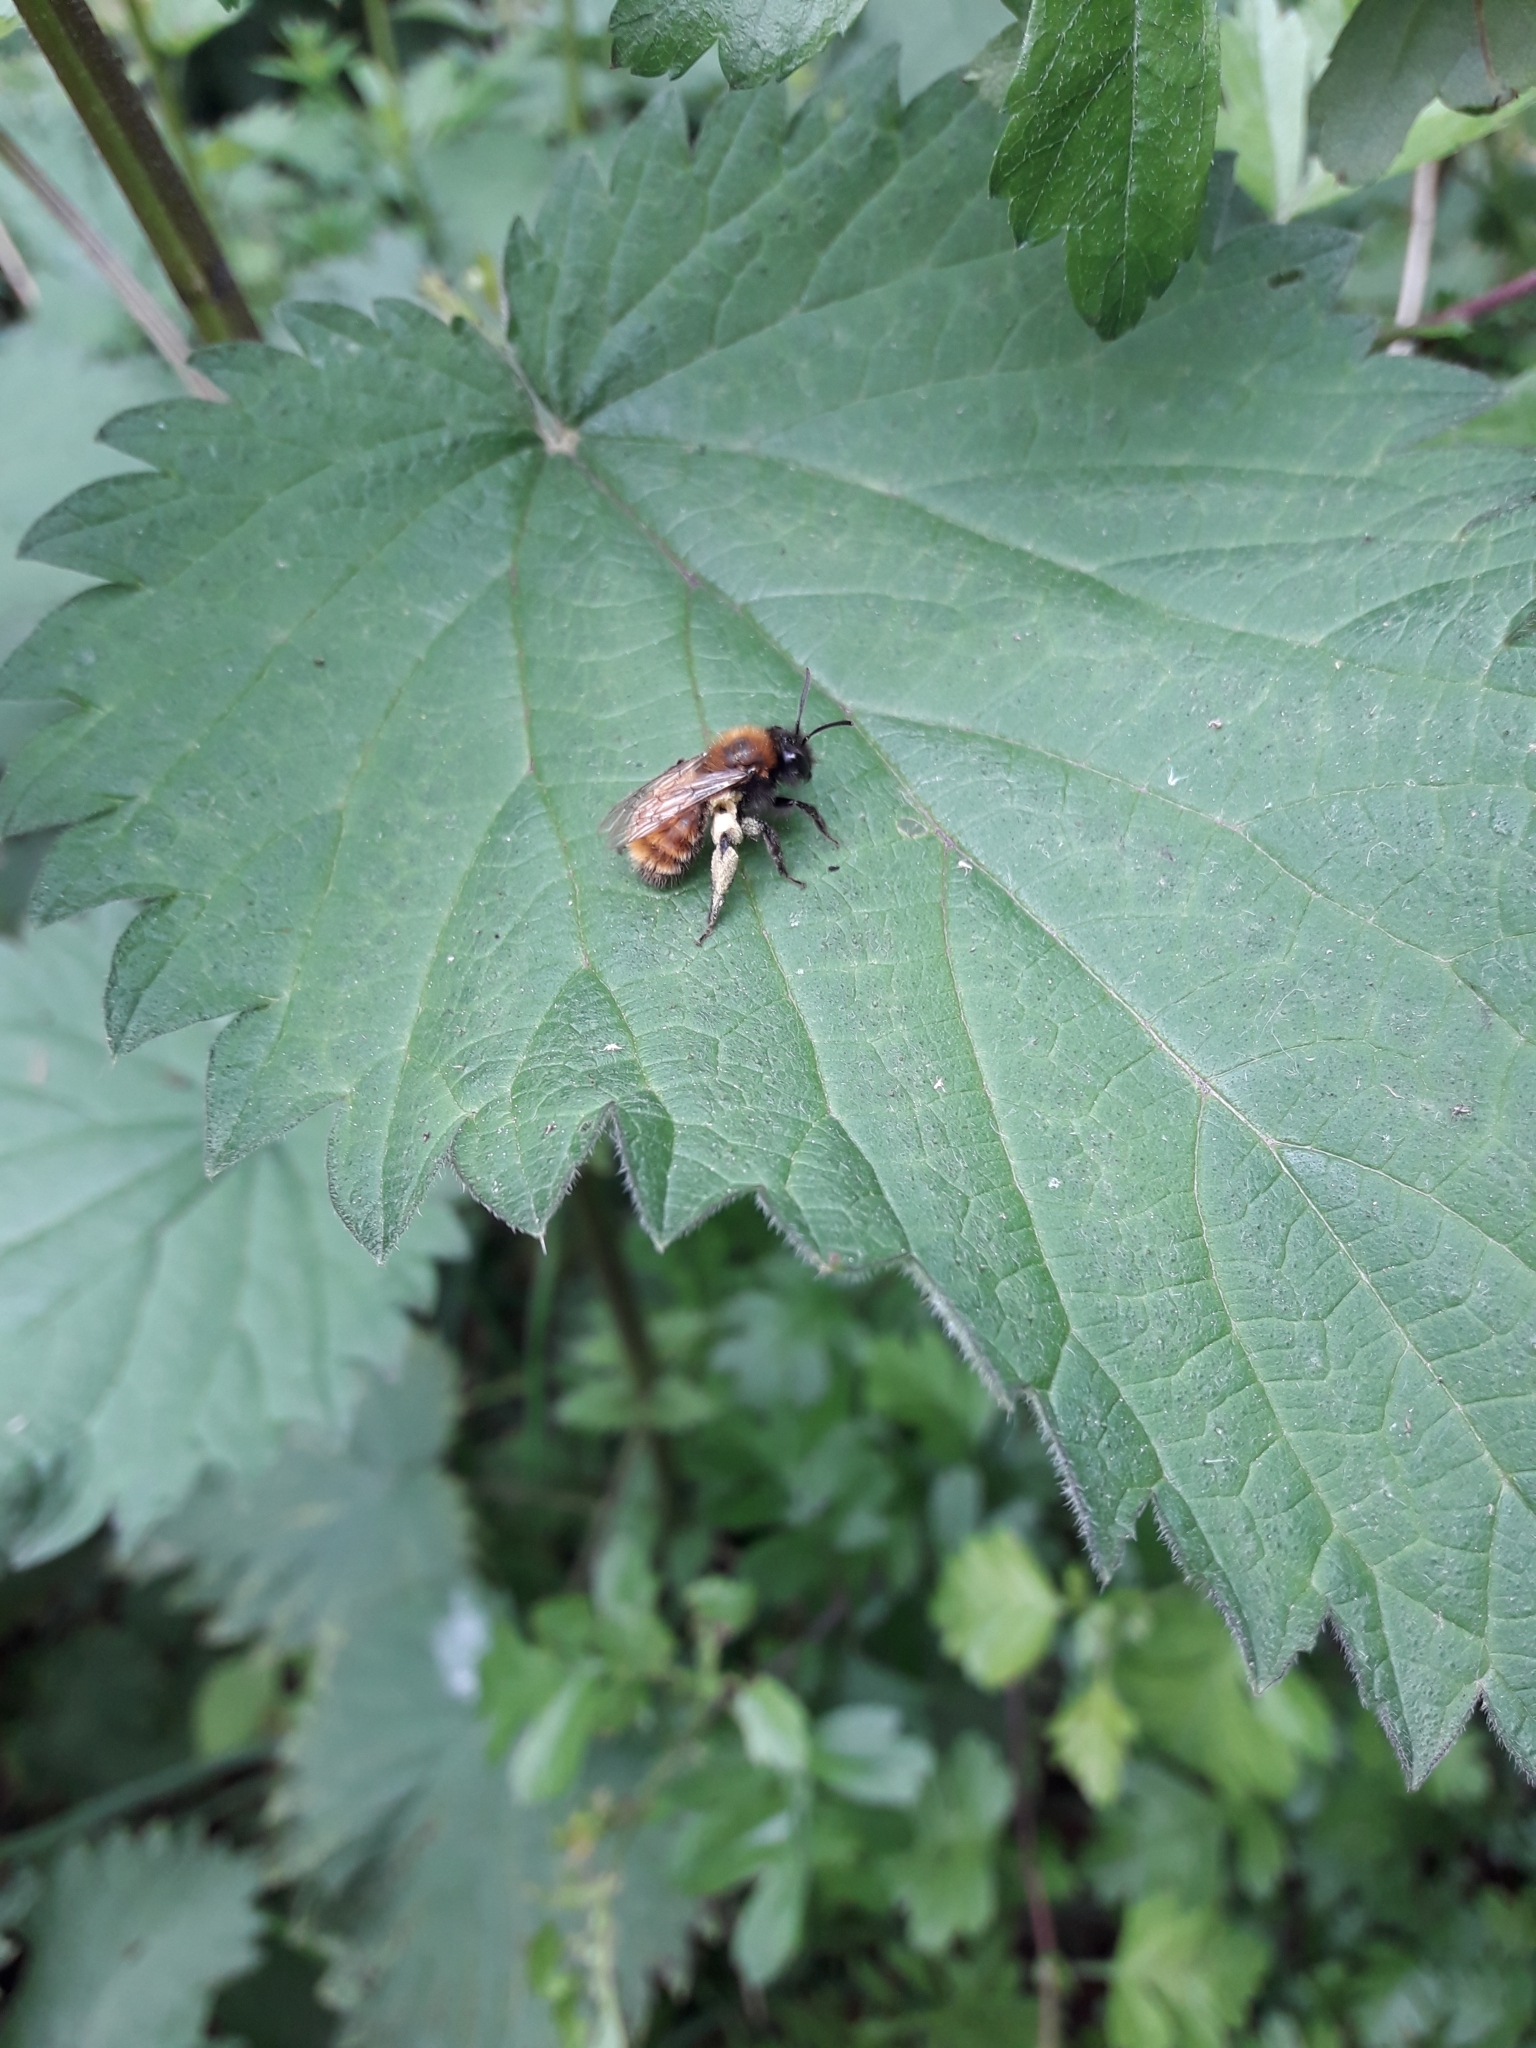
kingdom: Animalia
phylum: Arthropoda
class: Insecta
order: Hymenoptera
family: Andrenidae
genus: Andrena
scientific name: Andrena fulva
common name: Tawny mining bee
